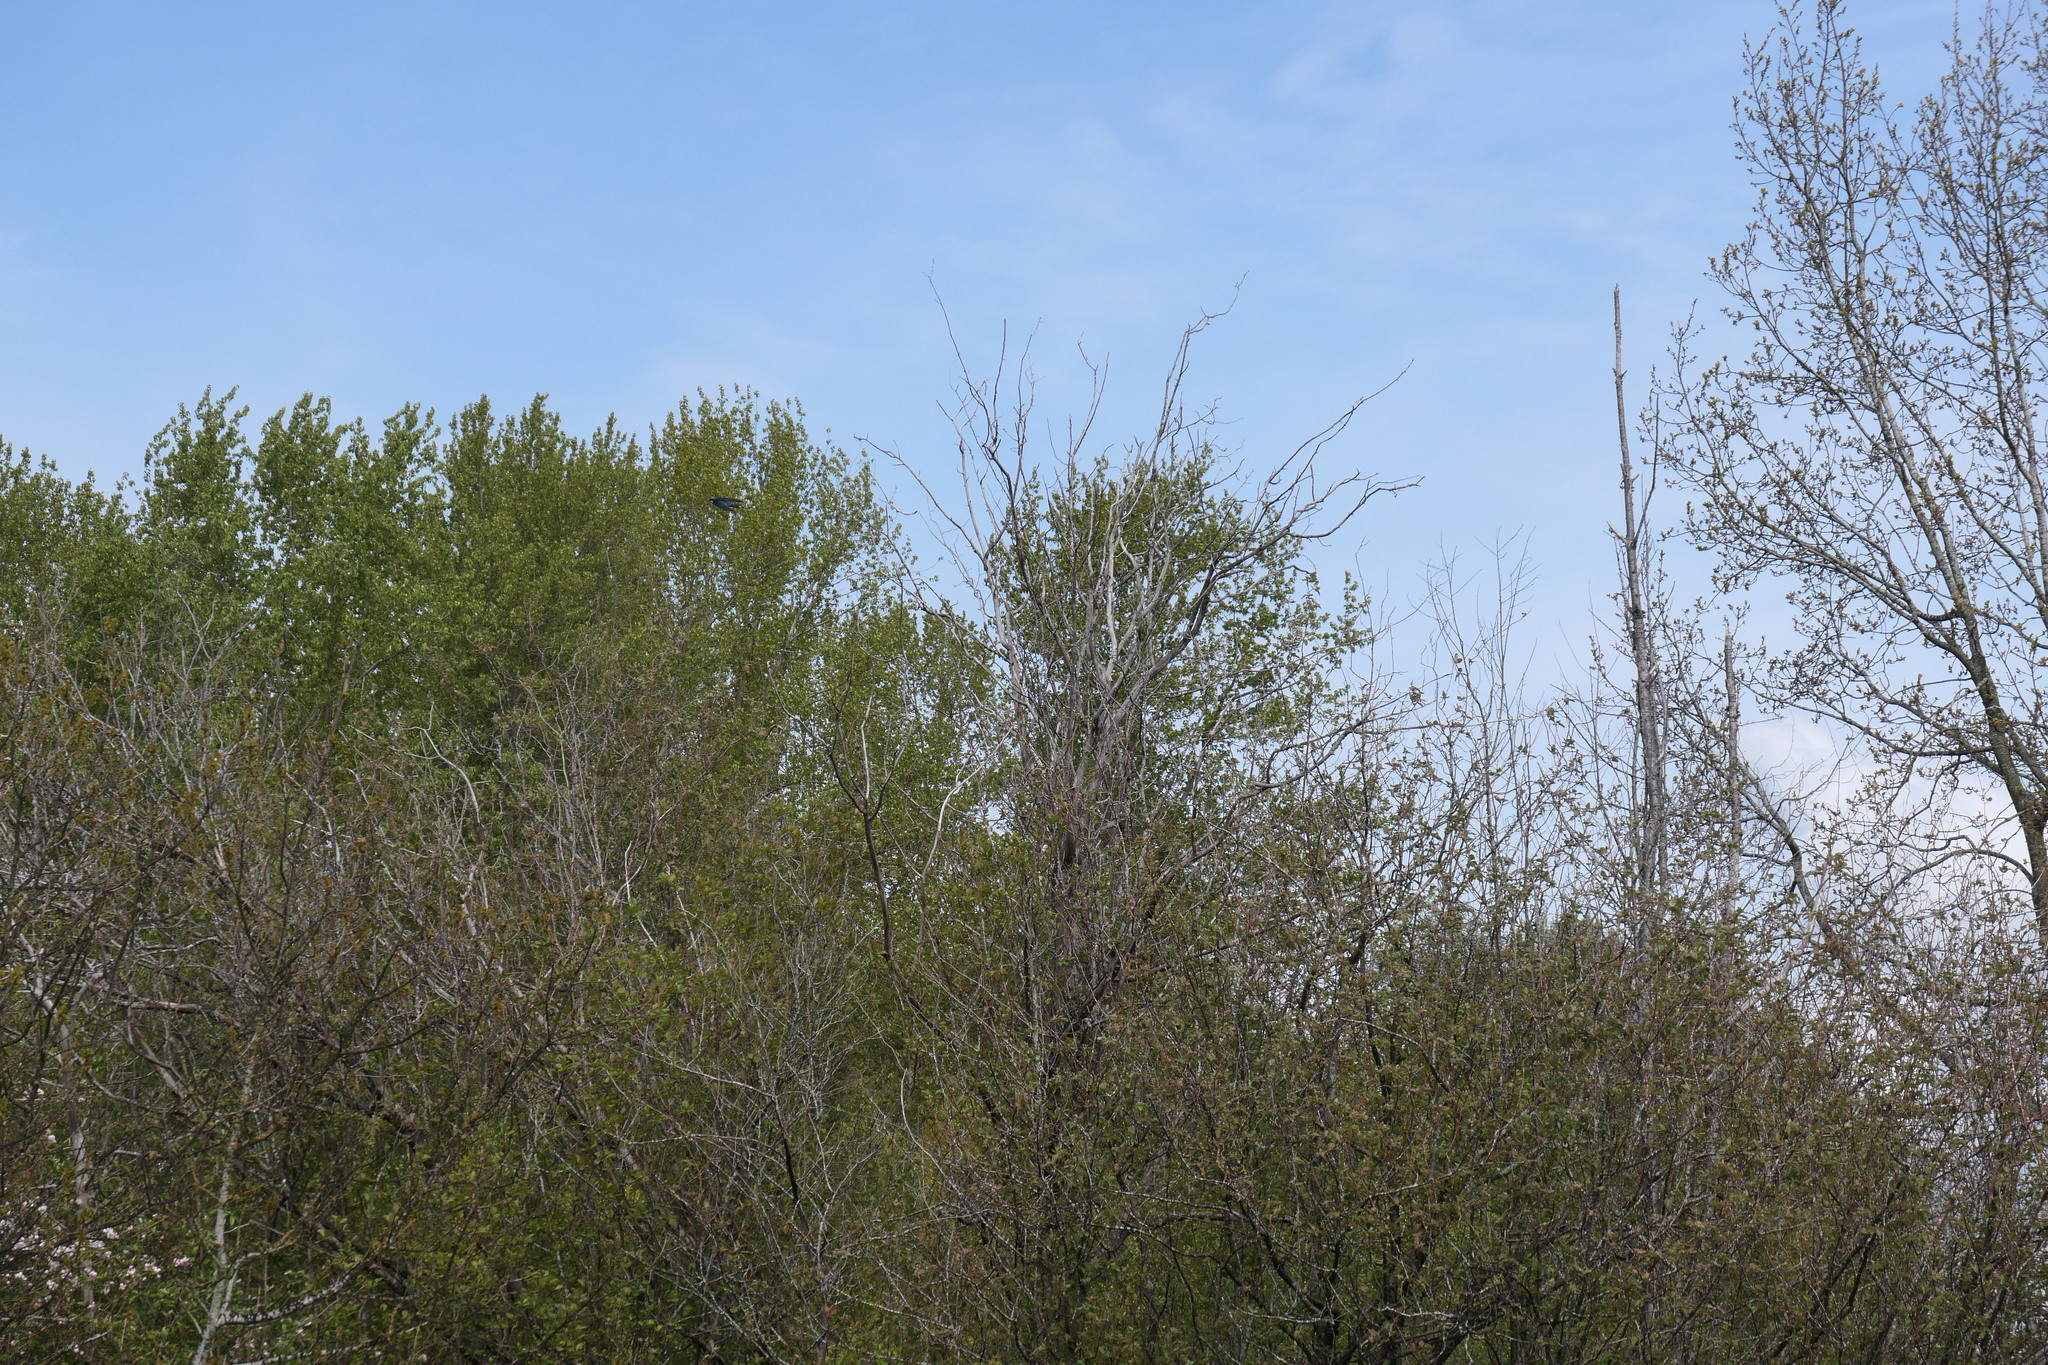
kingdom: Animalia
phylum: Chordata
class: Aves
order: Passeriformes
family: Hirundinidae
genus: Tachycineta
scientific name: Tachycineta bicolor
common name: Tree swallow
